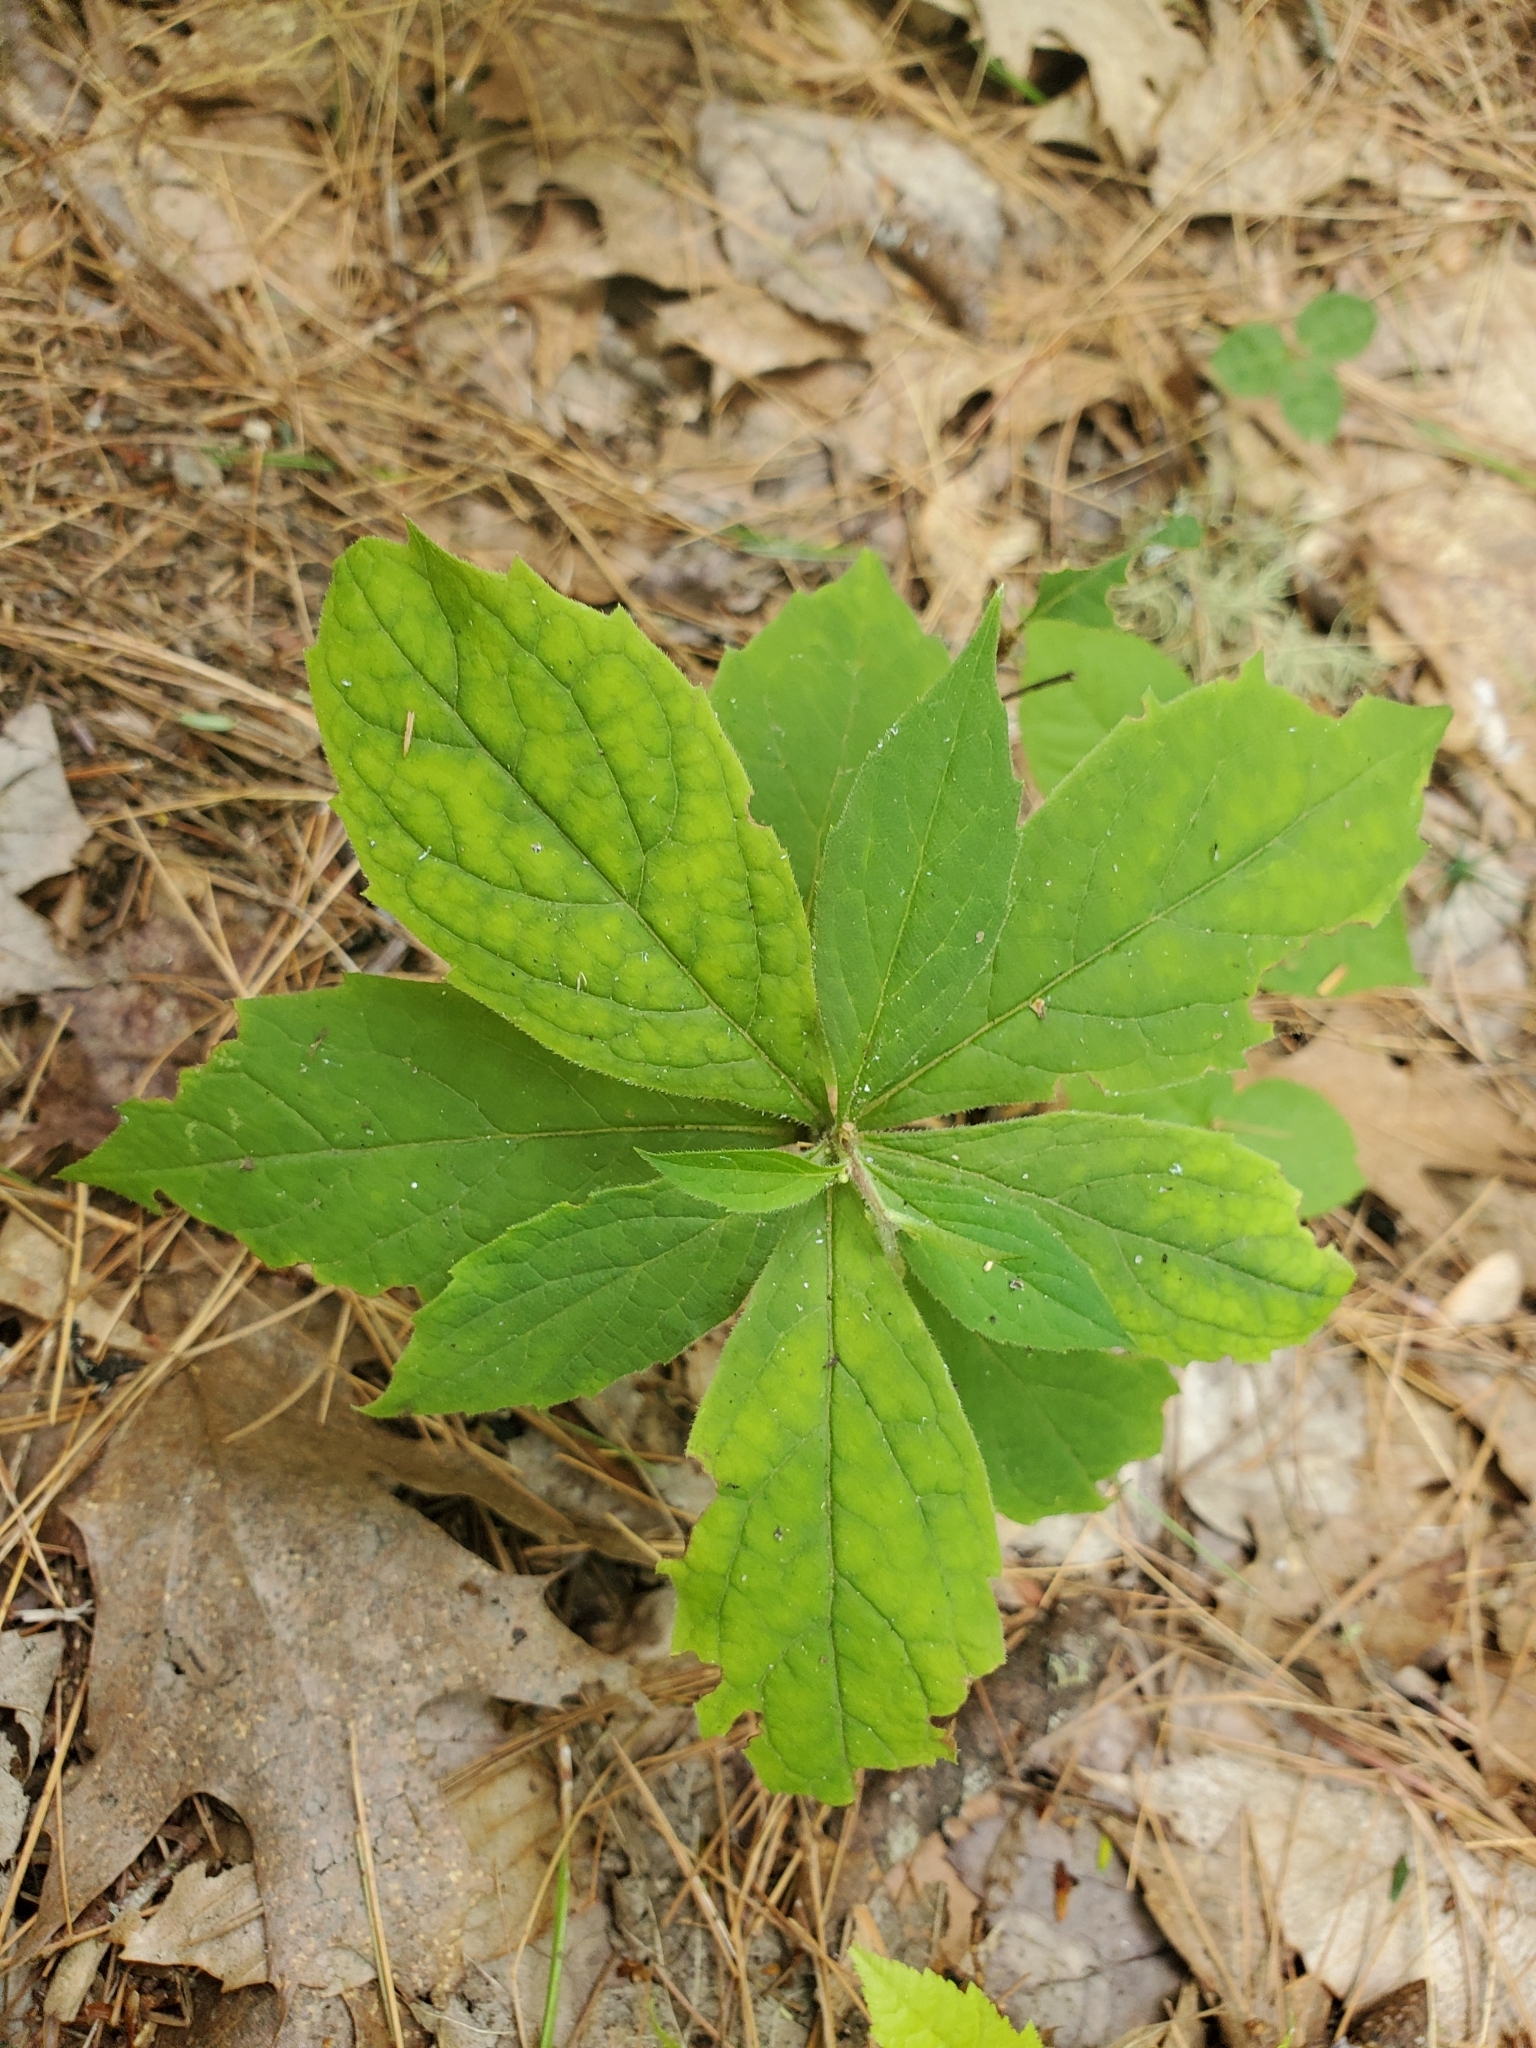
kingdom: Plantae
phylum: Tracheophyta
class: Magnoliopsida
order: Asterales
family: Asteraceae
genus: Oclemena
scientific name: Oclemena acuminata
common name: Mountain aster
